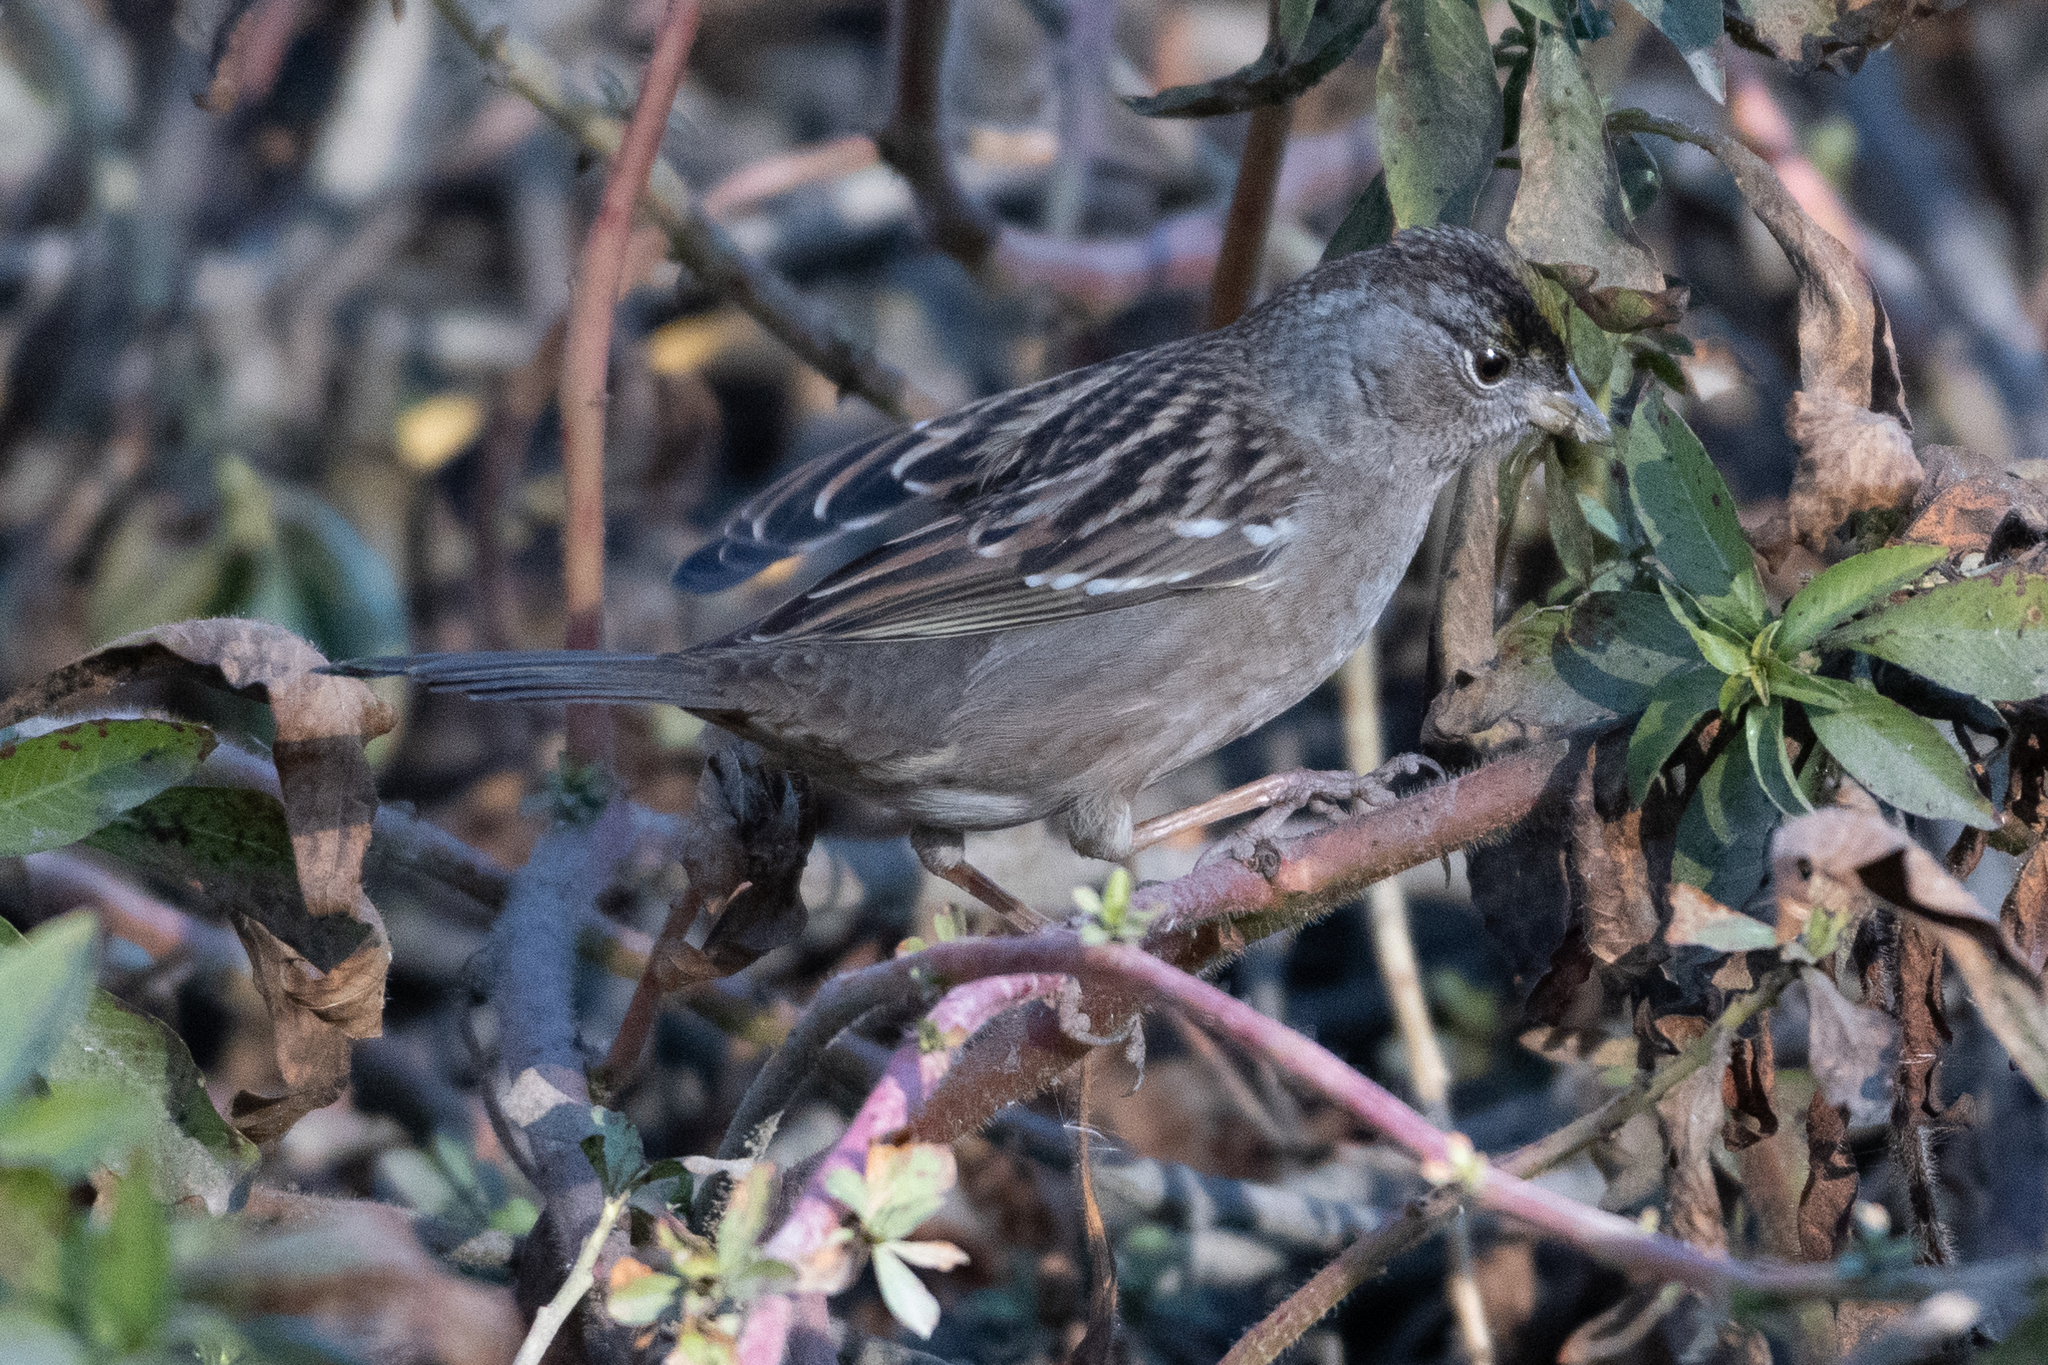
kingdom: Animalia
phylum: Chordata
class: Aves
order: Passeriformes
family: Passerellidae
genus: Zonotrichia
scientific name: Zonotrichia atricapilla
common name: Golden-crowned sparrow
